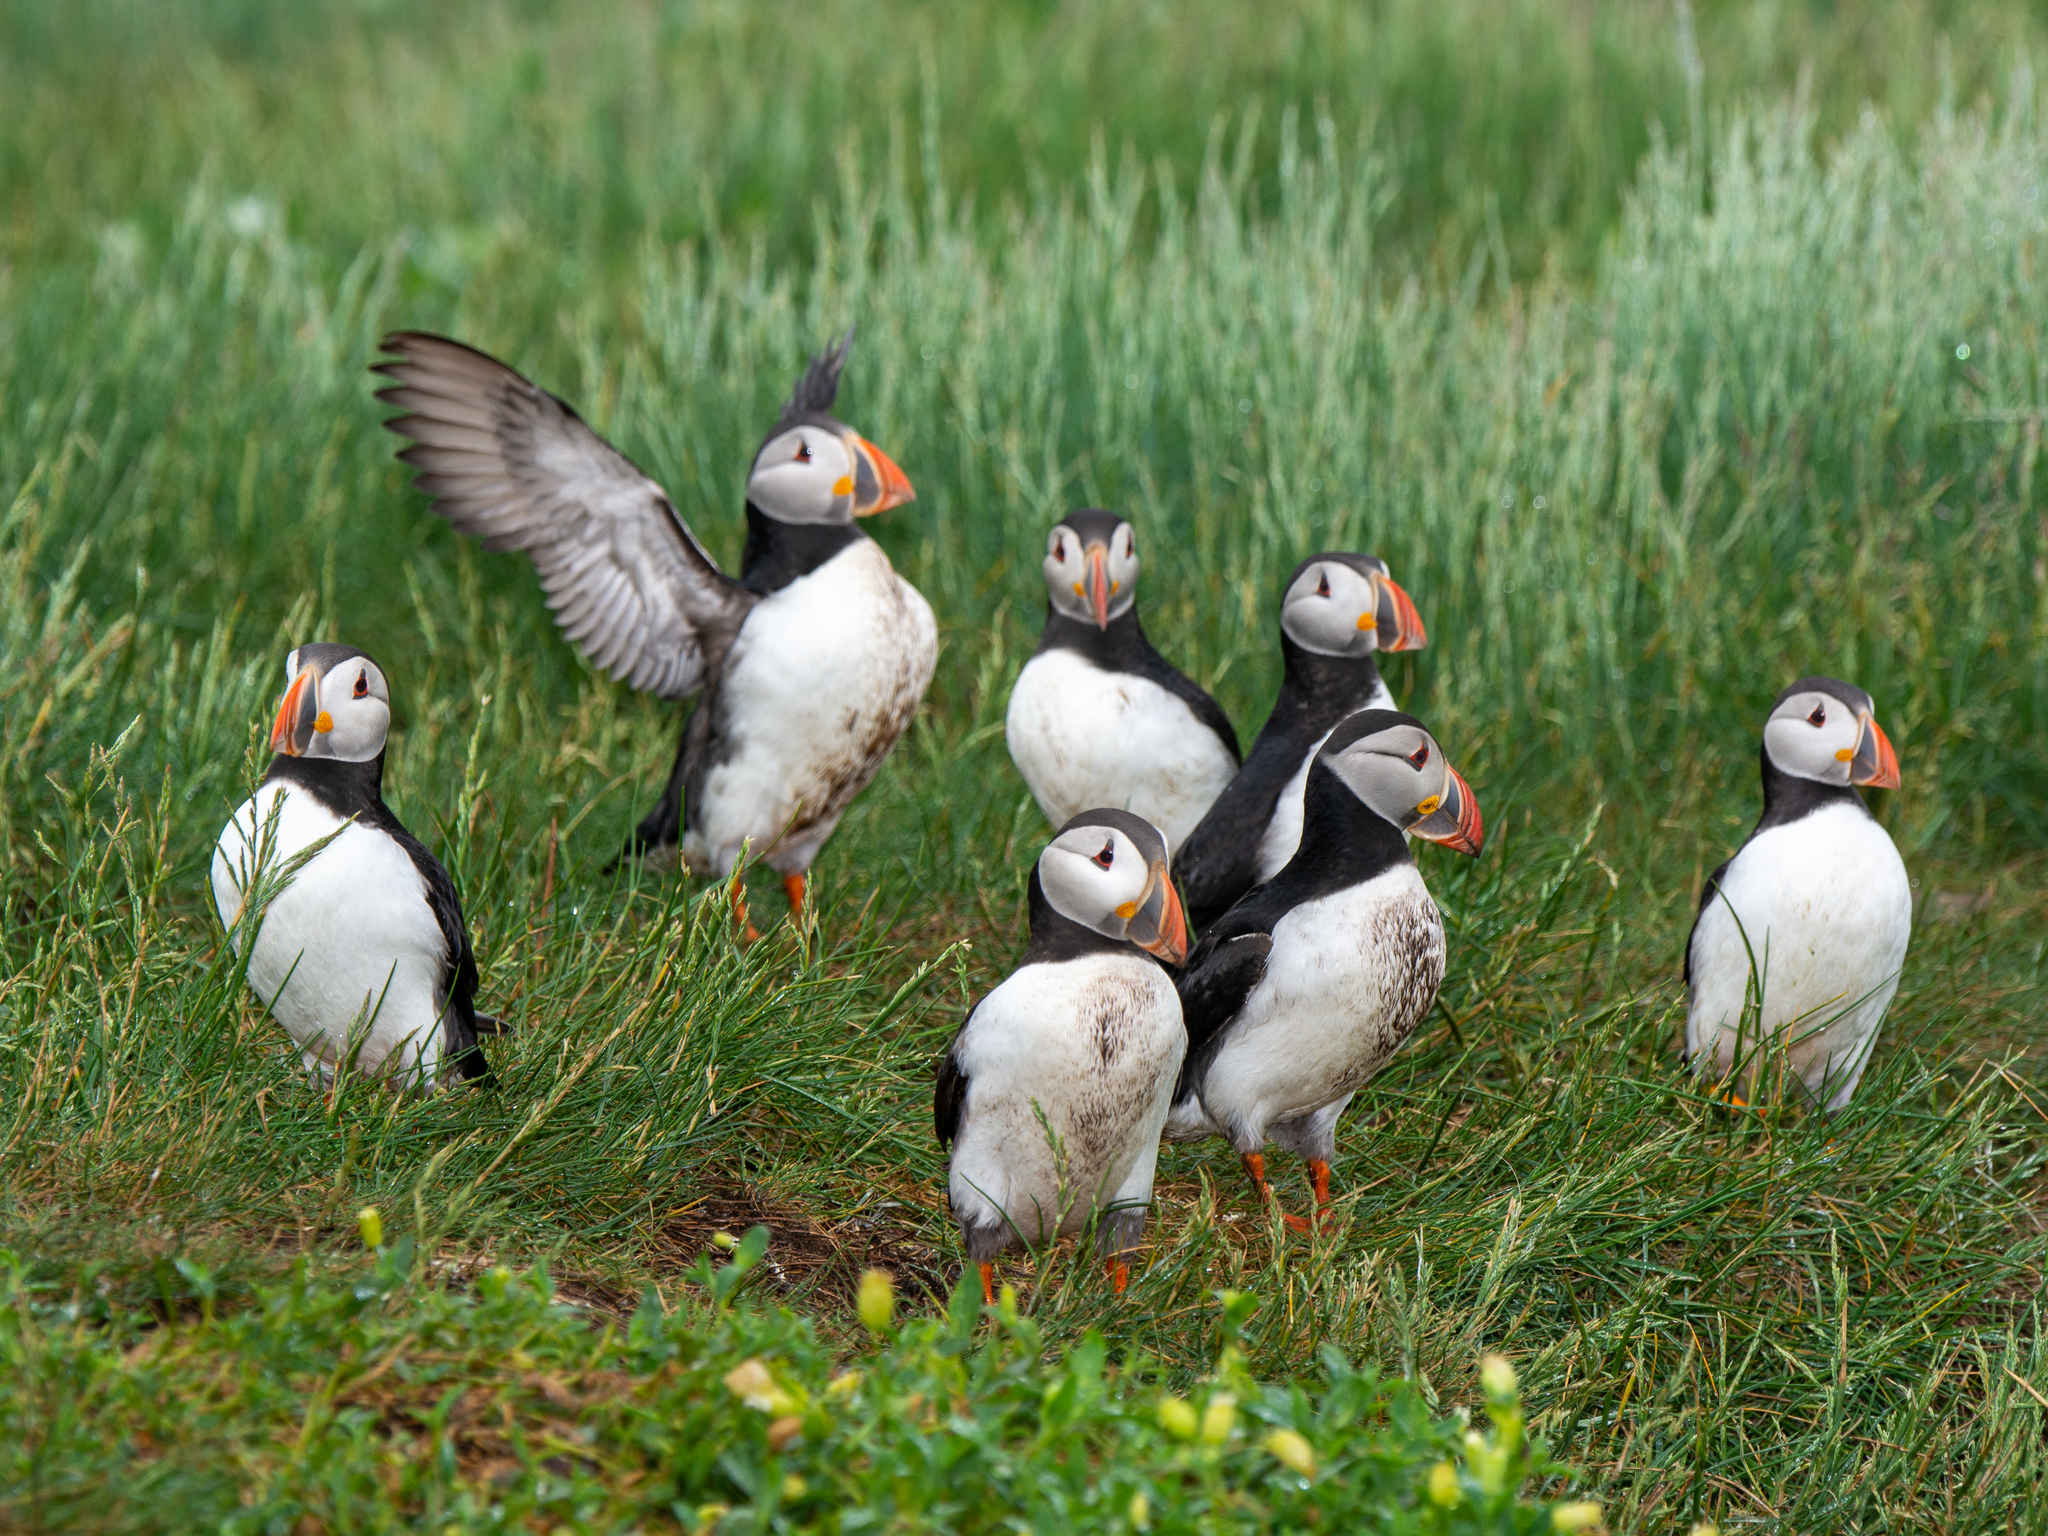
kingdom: Animalia
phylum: Chordata
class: Aves
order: Charadriiformes
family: Alcidae
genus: Fratercula
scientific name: Fratercula arctica
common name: Atlantic puffin
